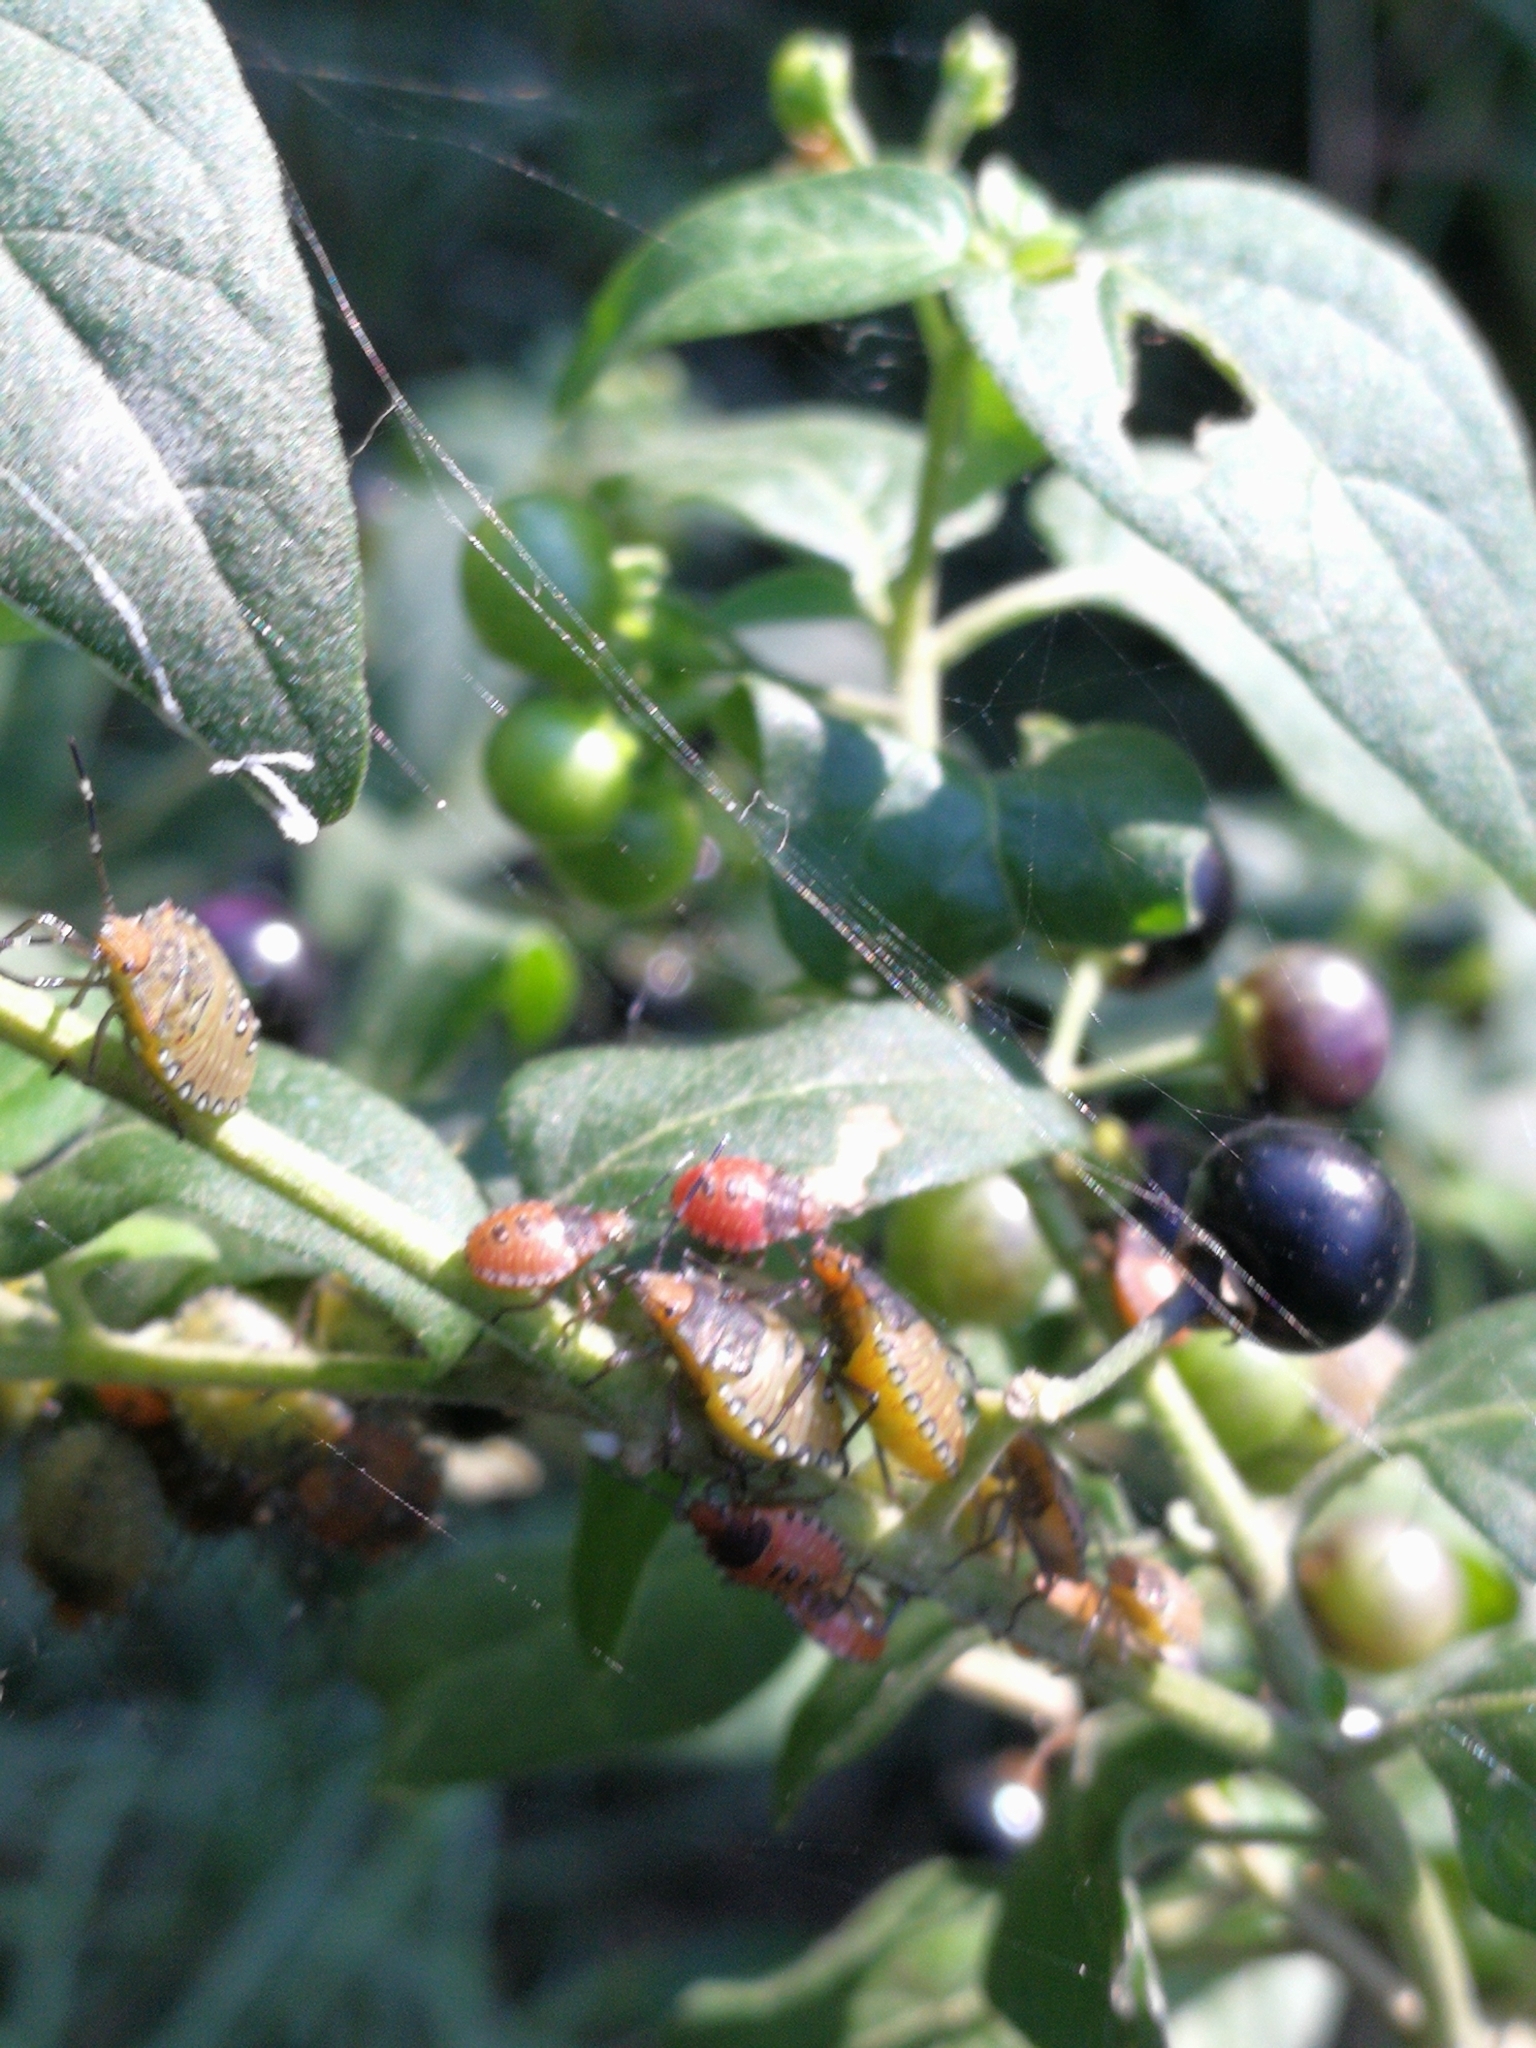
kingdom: Animalia
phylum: Arthropoda
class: Insecta
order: Hemiptera
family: Pentatomidae
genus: Arvelius
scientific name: Arvelius albopunctatus
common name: Tomato stink bug
